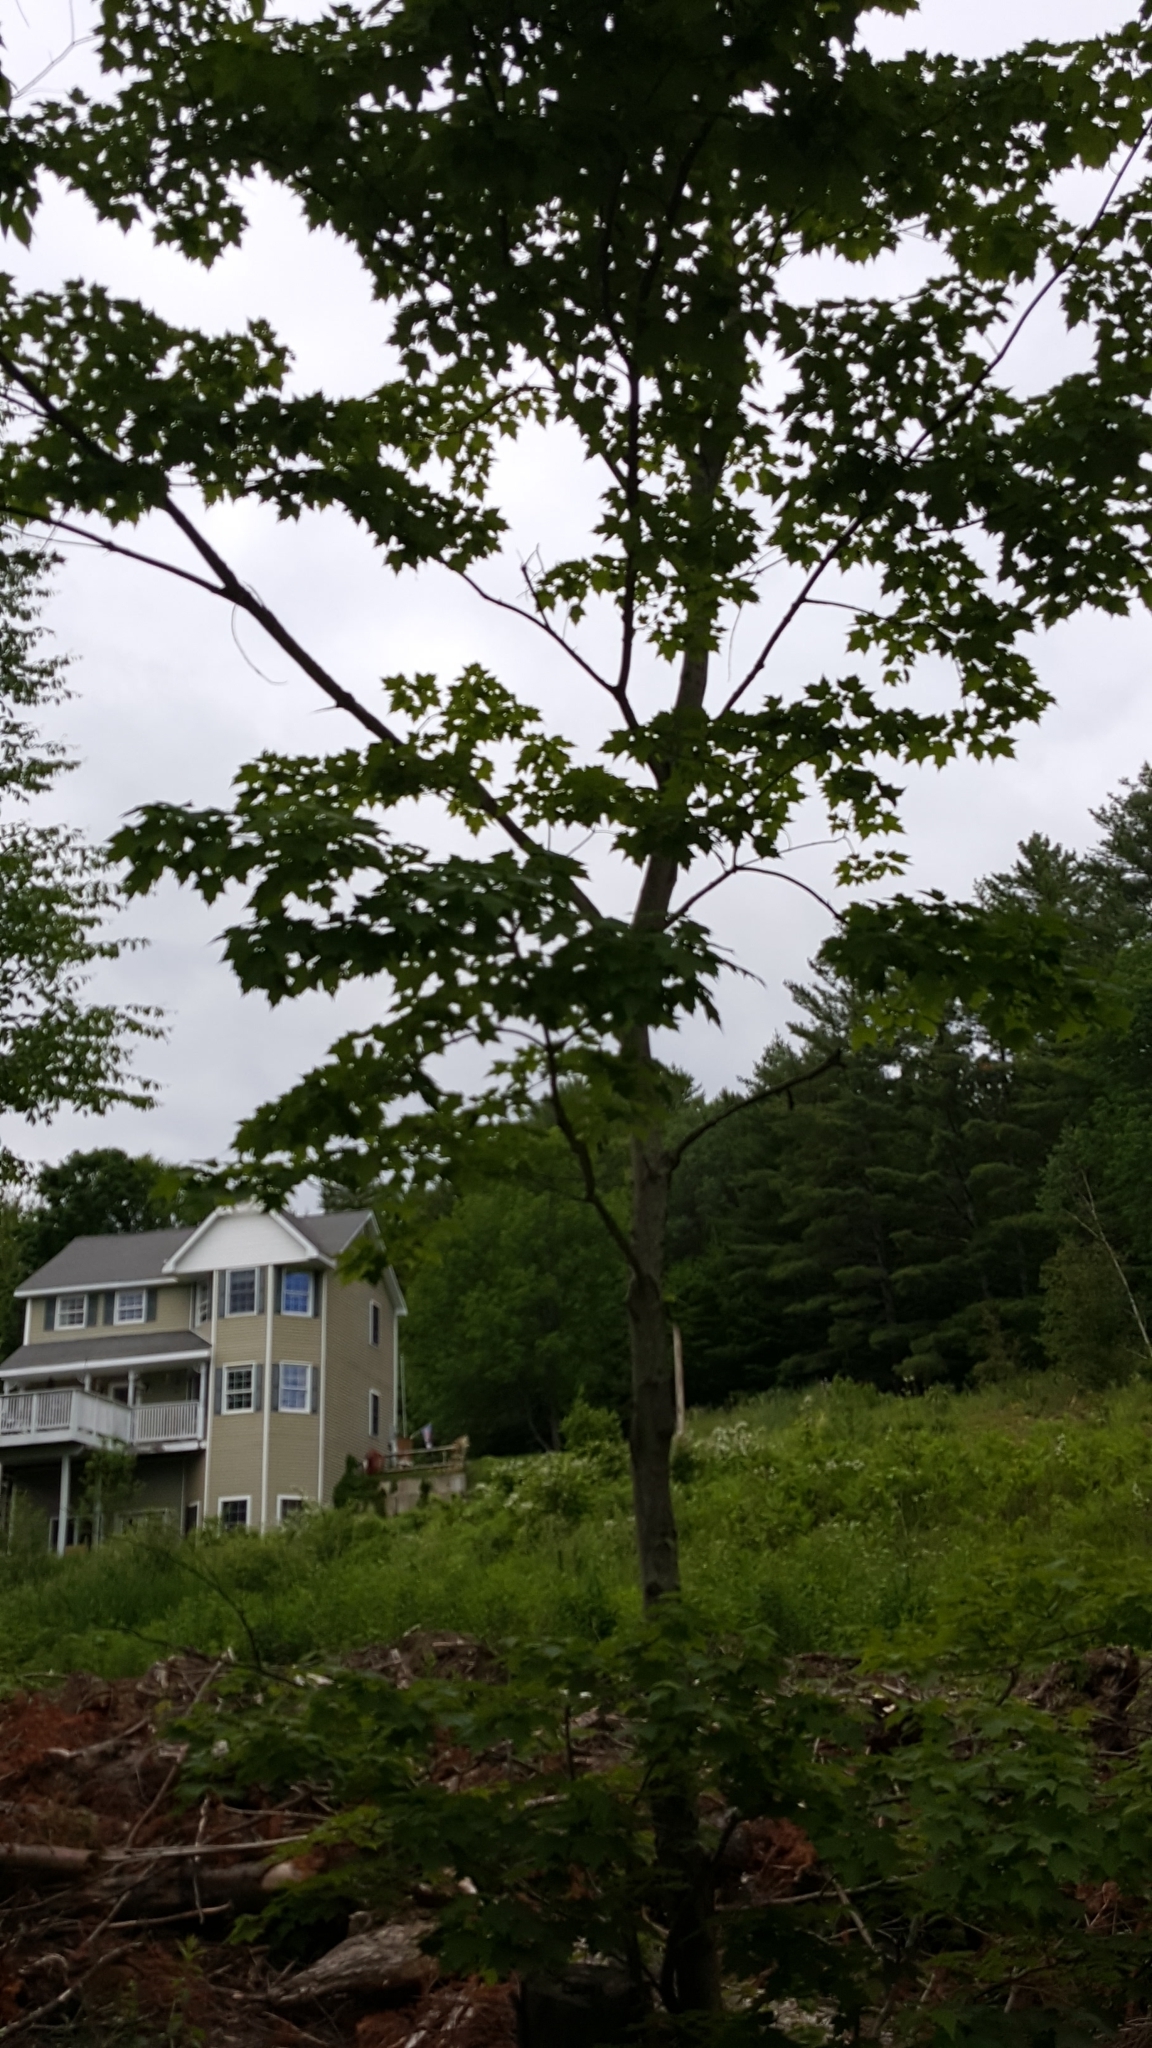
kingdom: Plantae
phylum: Tracheophyta
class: Magnoliopsida
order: Sapindales
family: Sapindaceae
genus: Acer
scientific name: Acer saccharum
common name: Sugar maple
